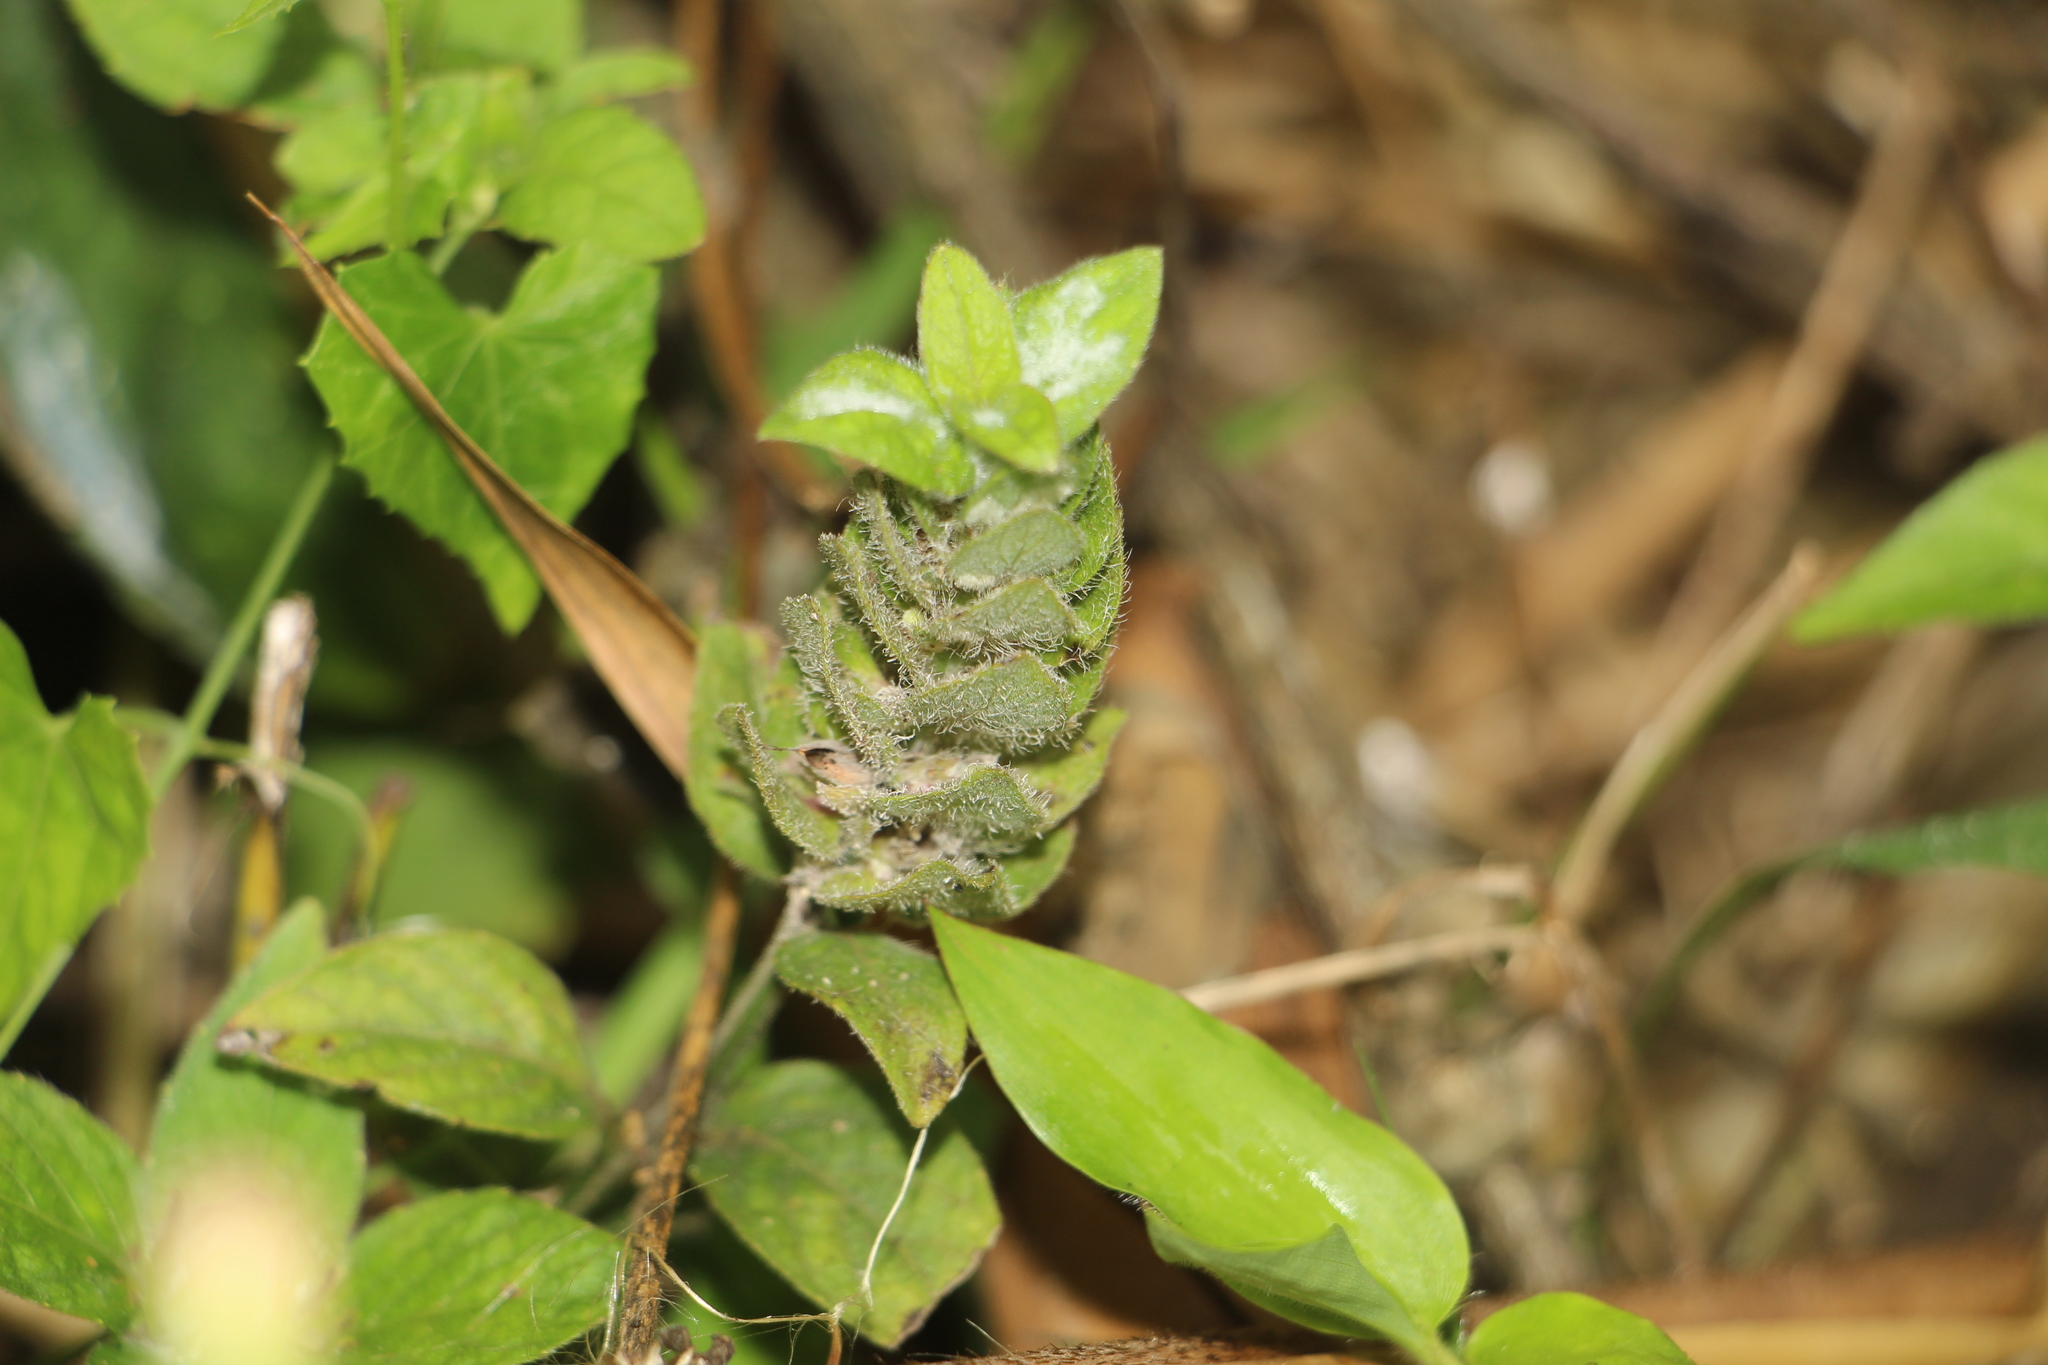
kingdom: Plantae
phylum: Tracheophyta
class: Magnoliopsida
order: Lamiales
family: Acanthaceae
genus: Ruellia
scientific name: Ruellia blechum
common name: Browne's blechum
